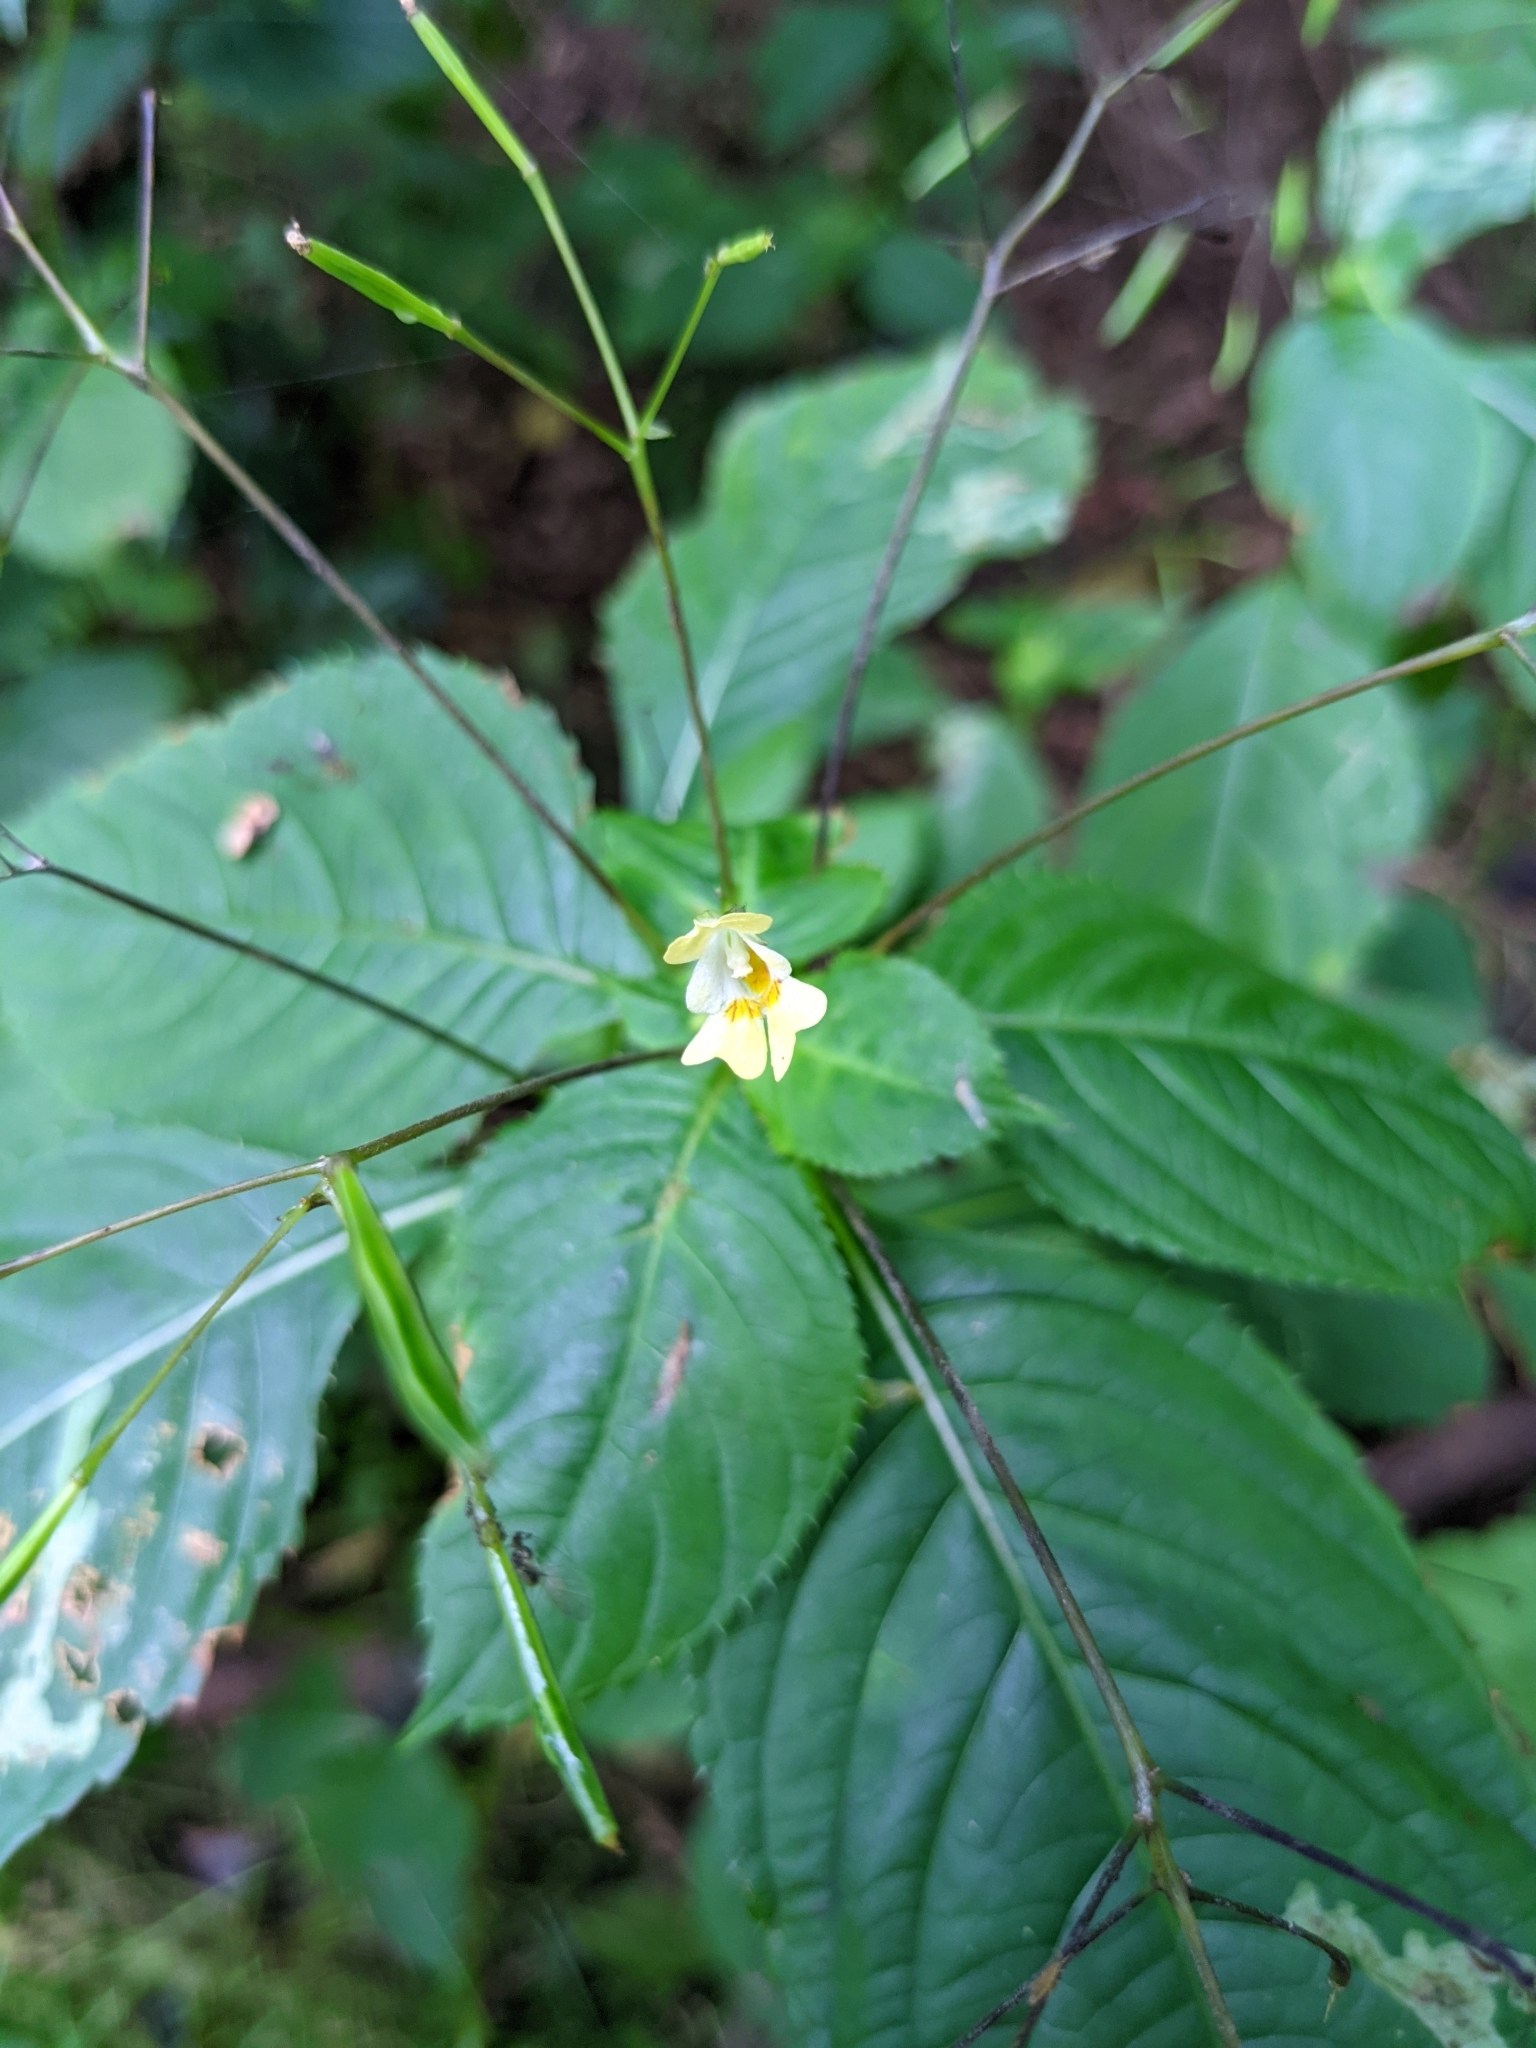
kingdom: Plantae
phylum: Tracheophyta
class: Magnoliopsida
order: Ericales
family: Balsaminaceae
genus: Impatiens
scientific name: Impatiens parviflora
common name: Small balsam
